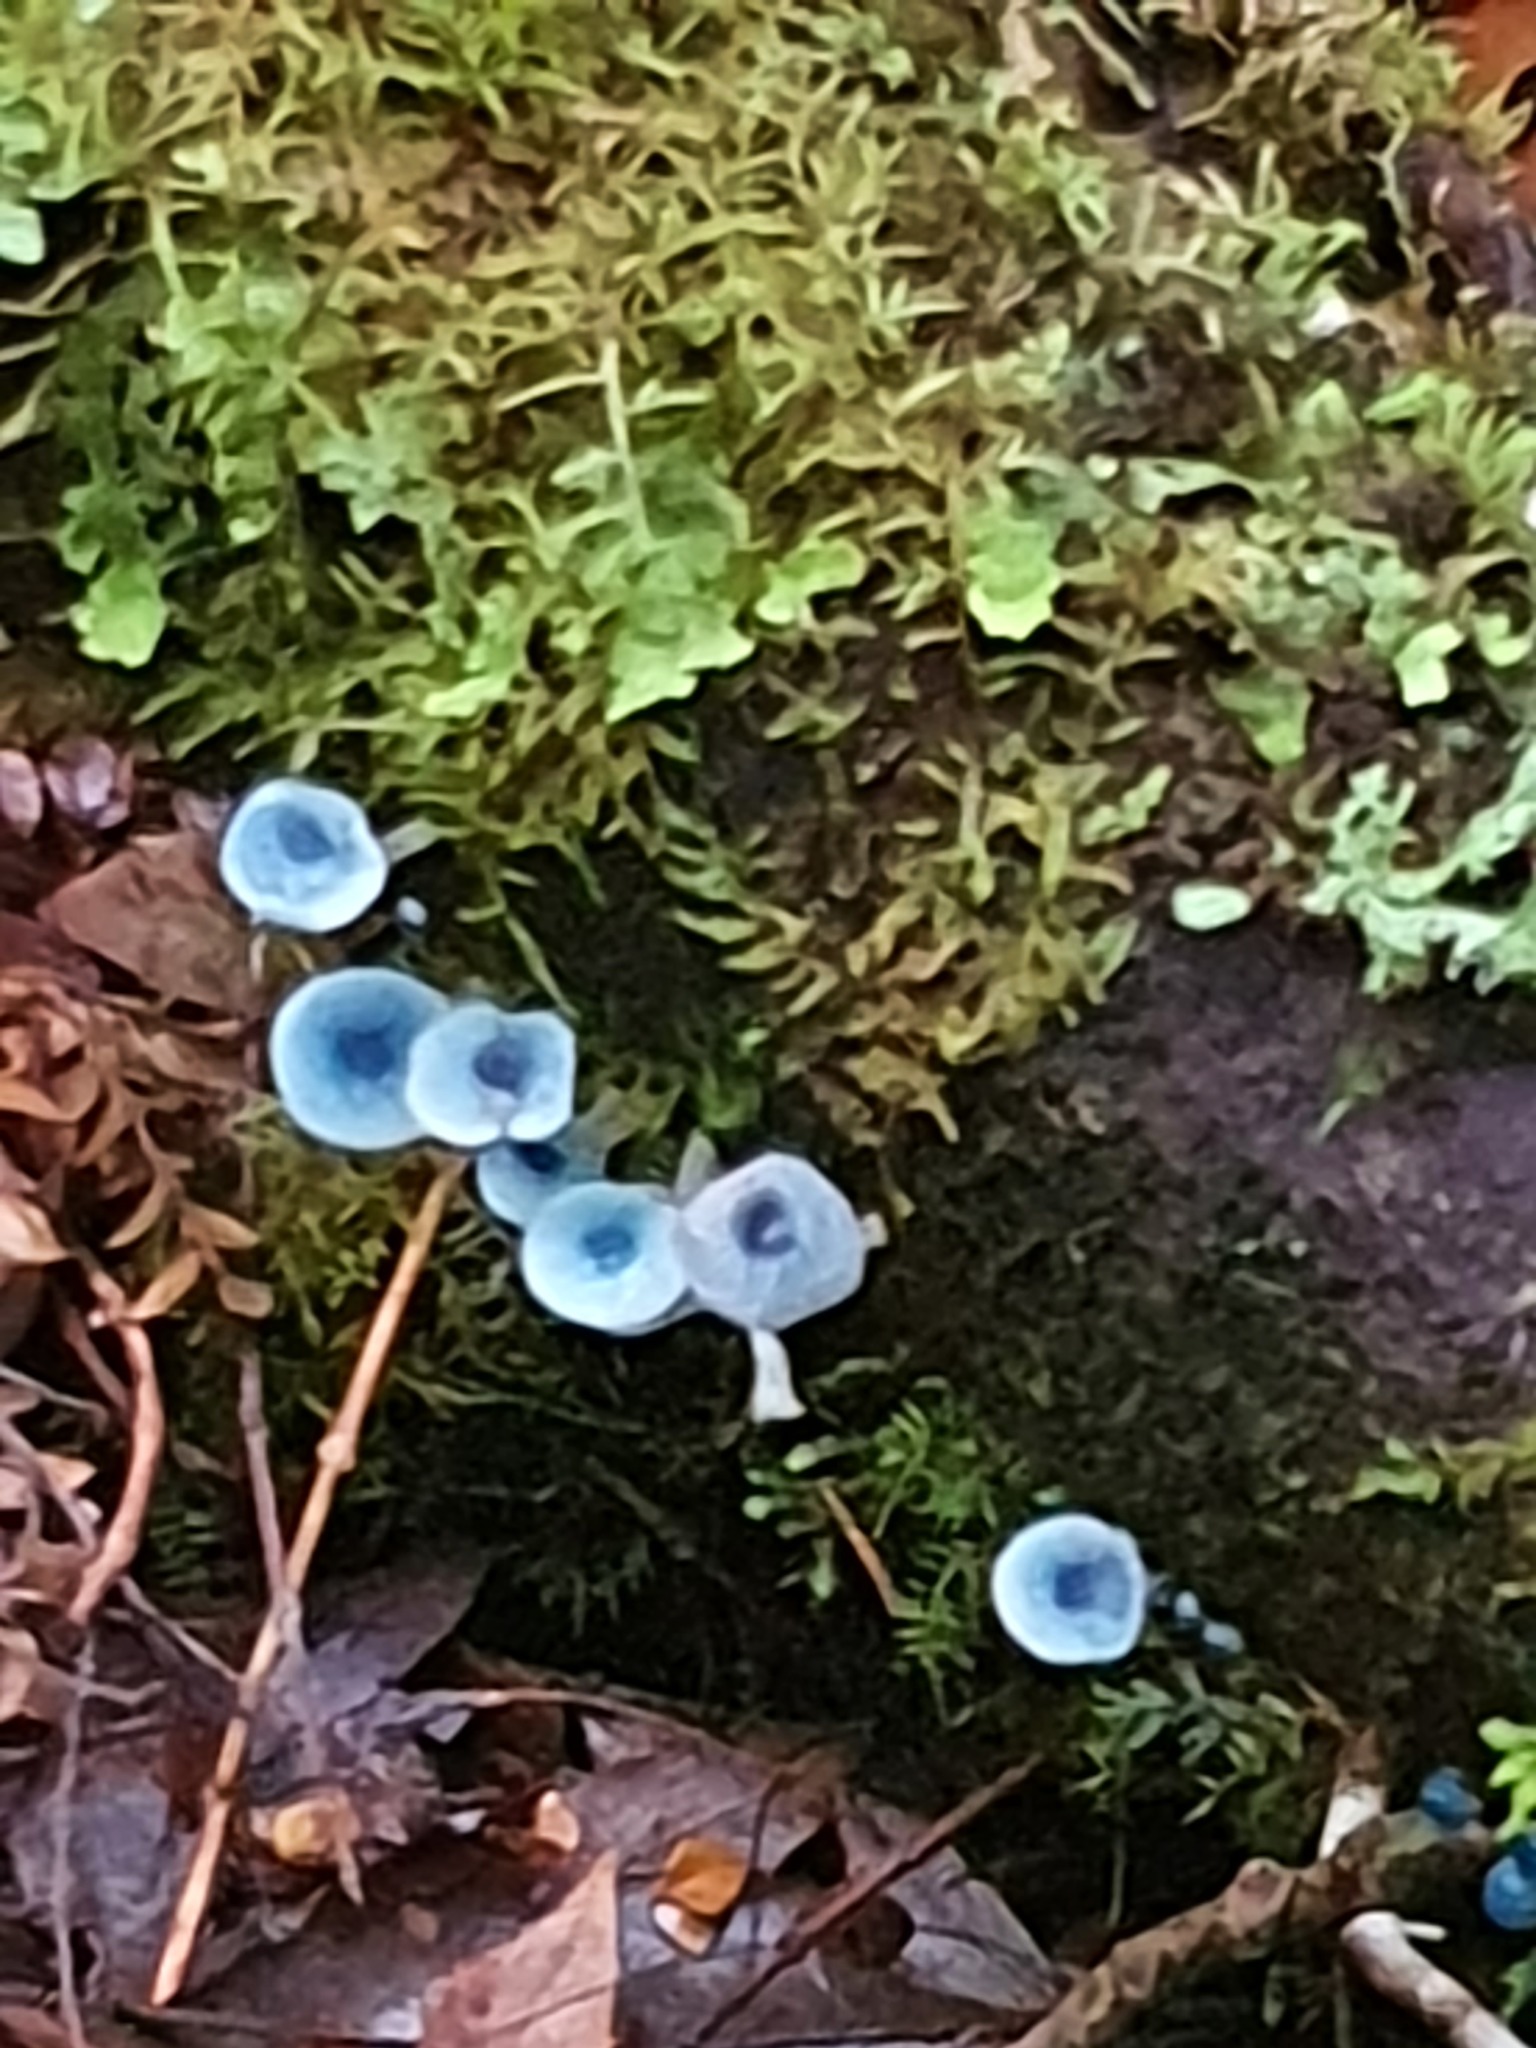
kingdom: Fungi
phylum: Basidiomycota
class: Agaricomycetes
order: Agaricales
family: Mycenaceae
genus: Mycena
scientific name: Mycena interrupta
